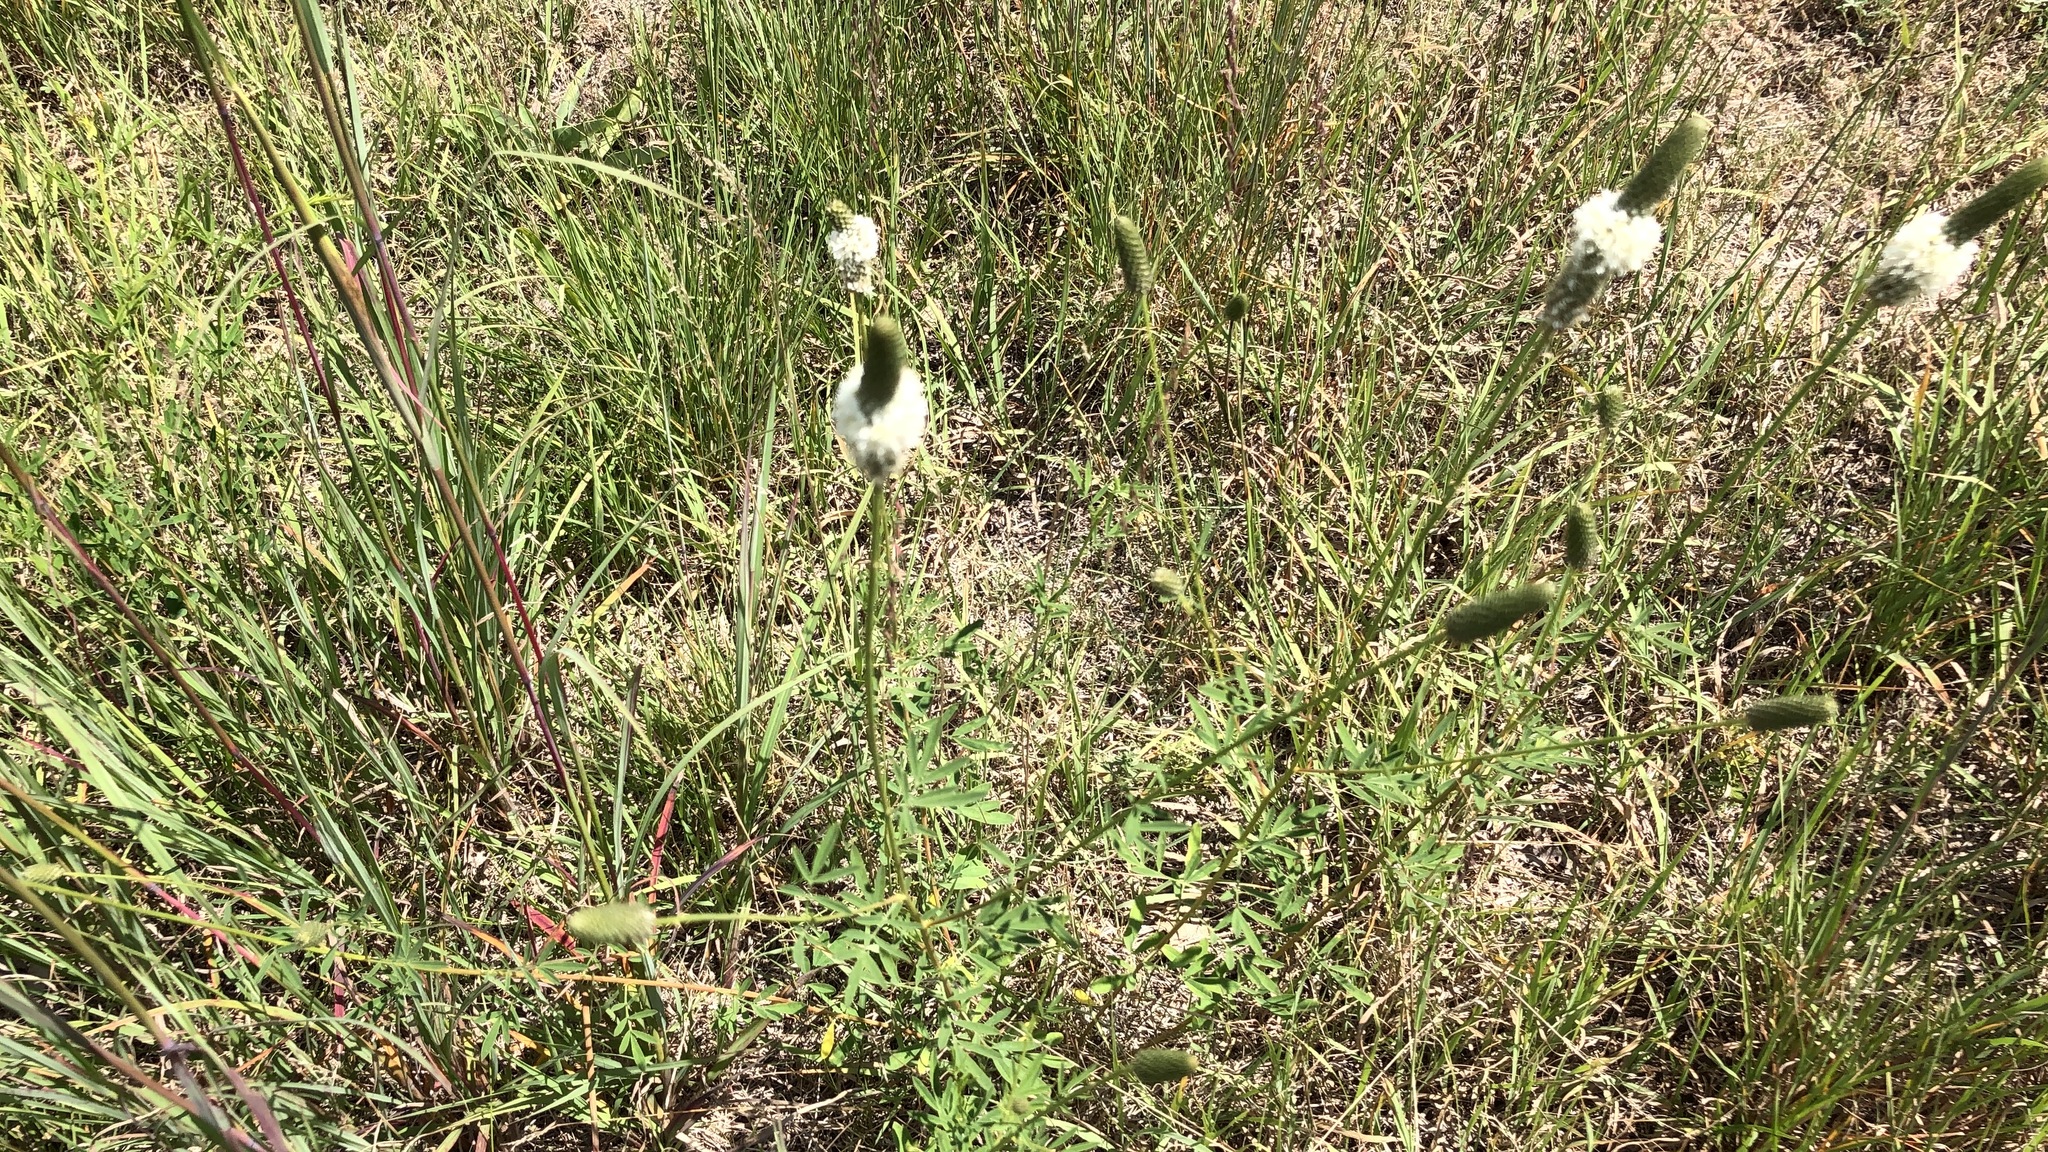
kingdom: Plantae
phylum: Tracheophyta
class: Magnoliopsida
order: Fabales
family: Fabaceae
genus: Dalea
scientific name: Dalea candida
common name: White prairie-clover
